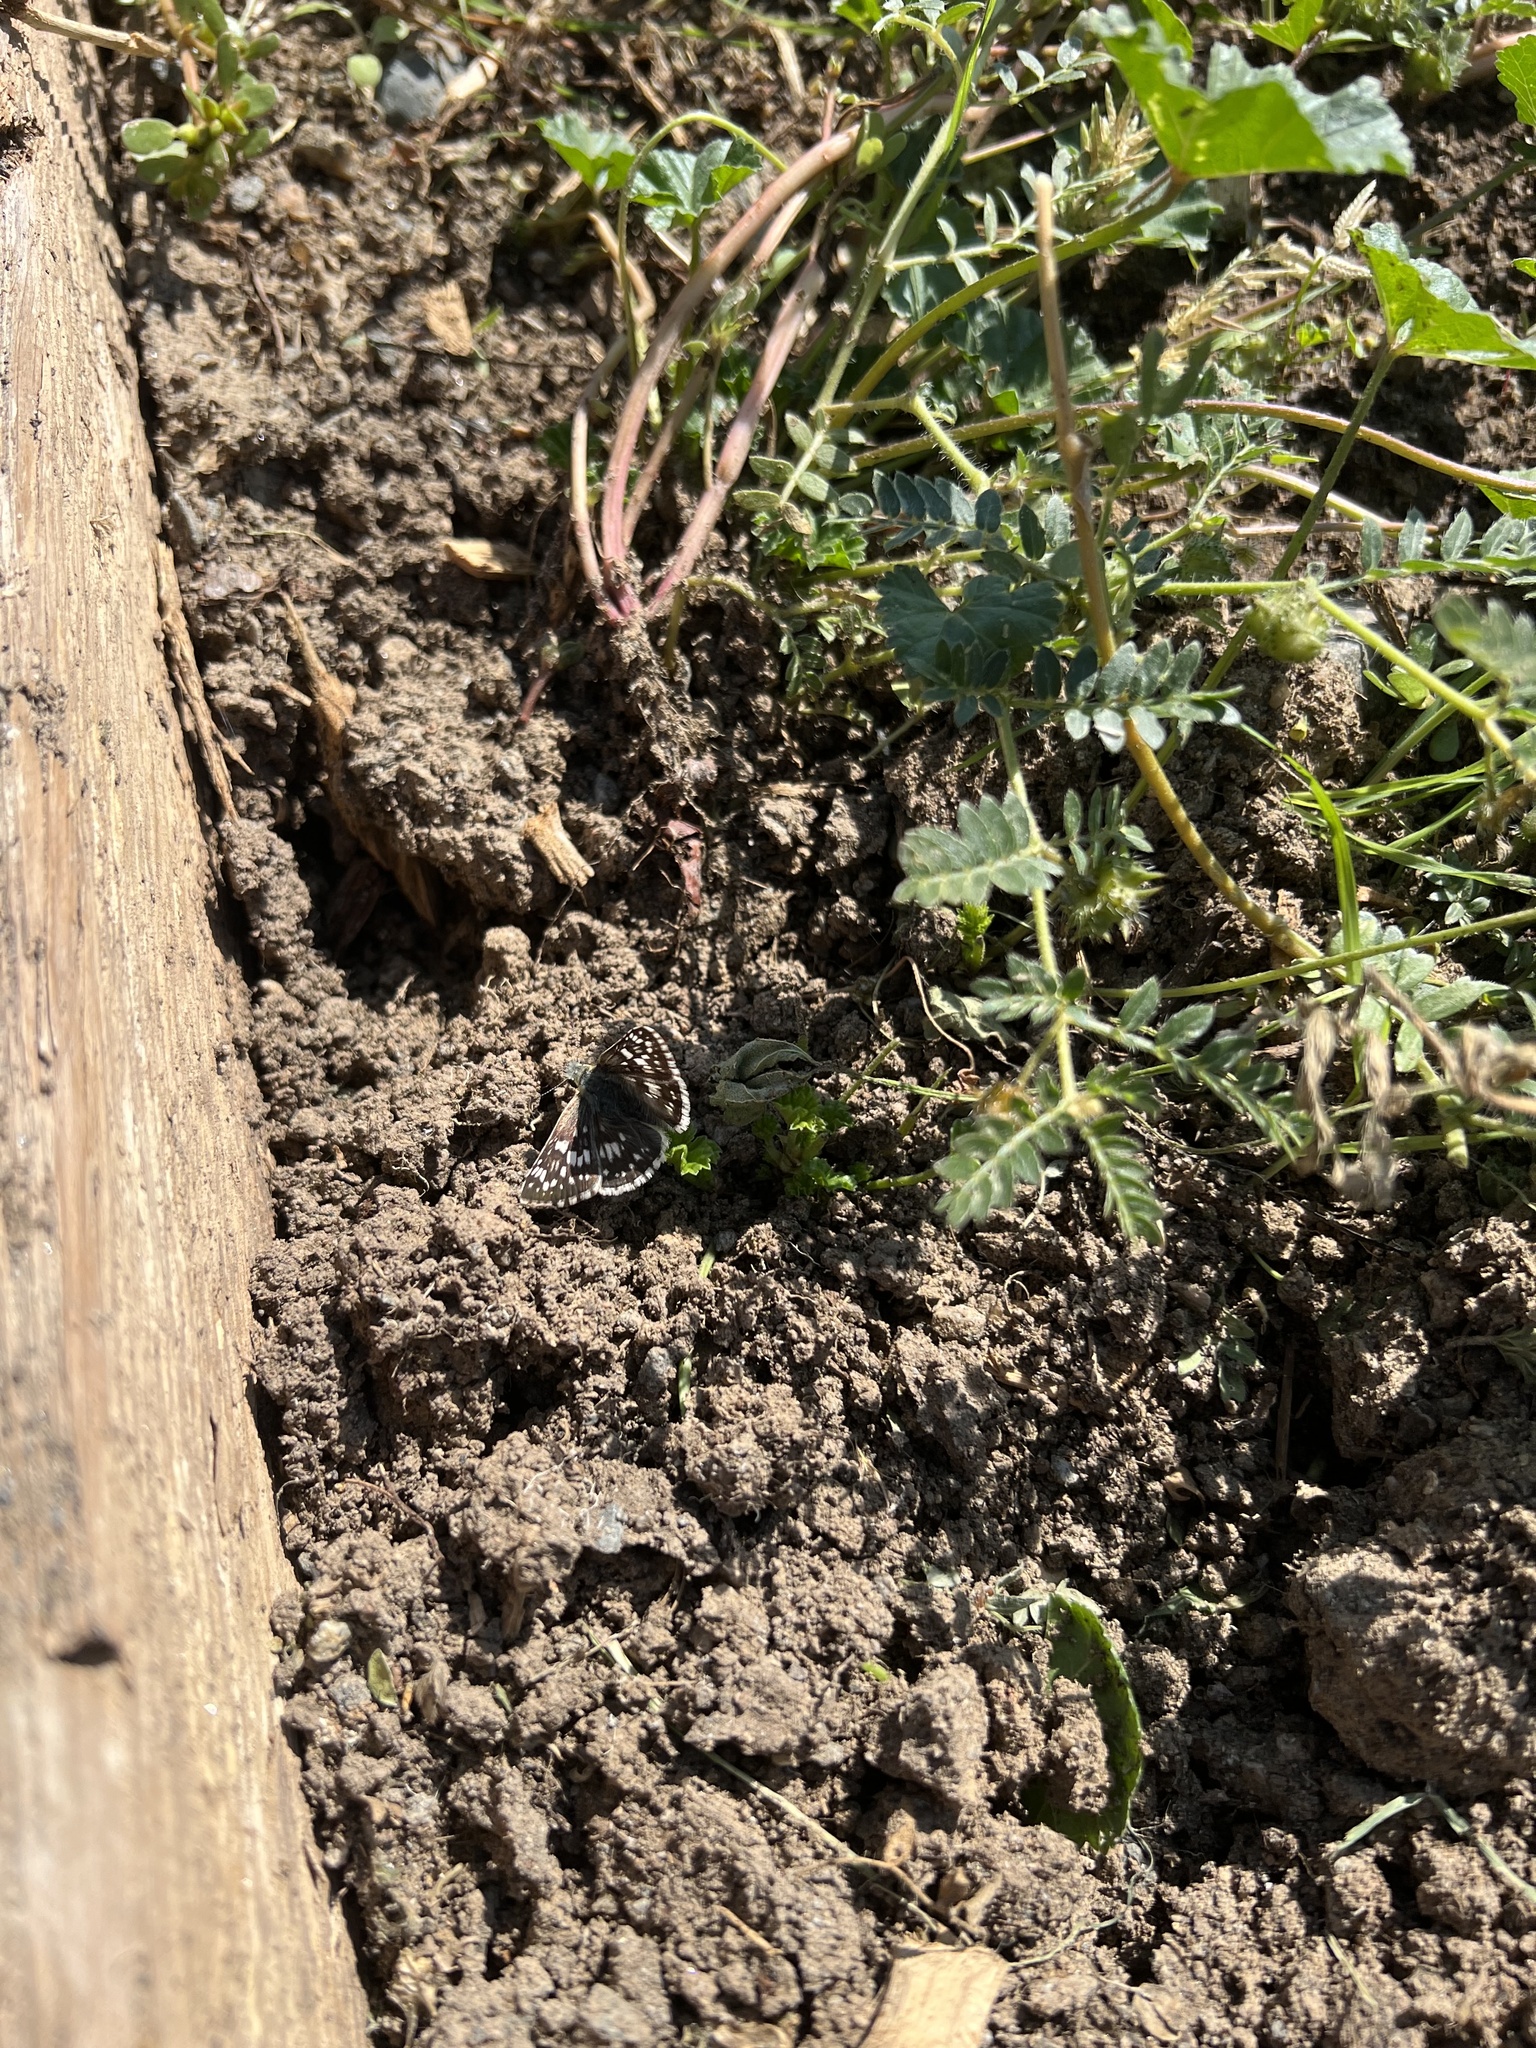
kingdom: Animalia
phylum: Arthropoda
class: Insecta
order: Lepidoptera
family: Hesperiidae
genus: Burnsius
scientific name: Burnsius communis
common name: Common checkered-skipper
